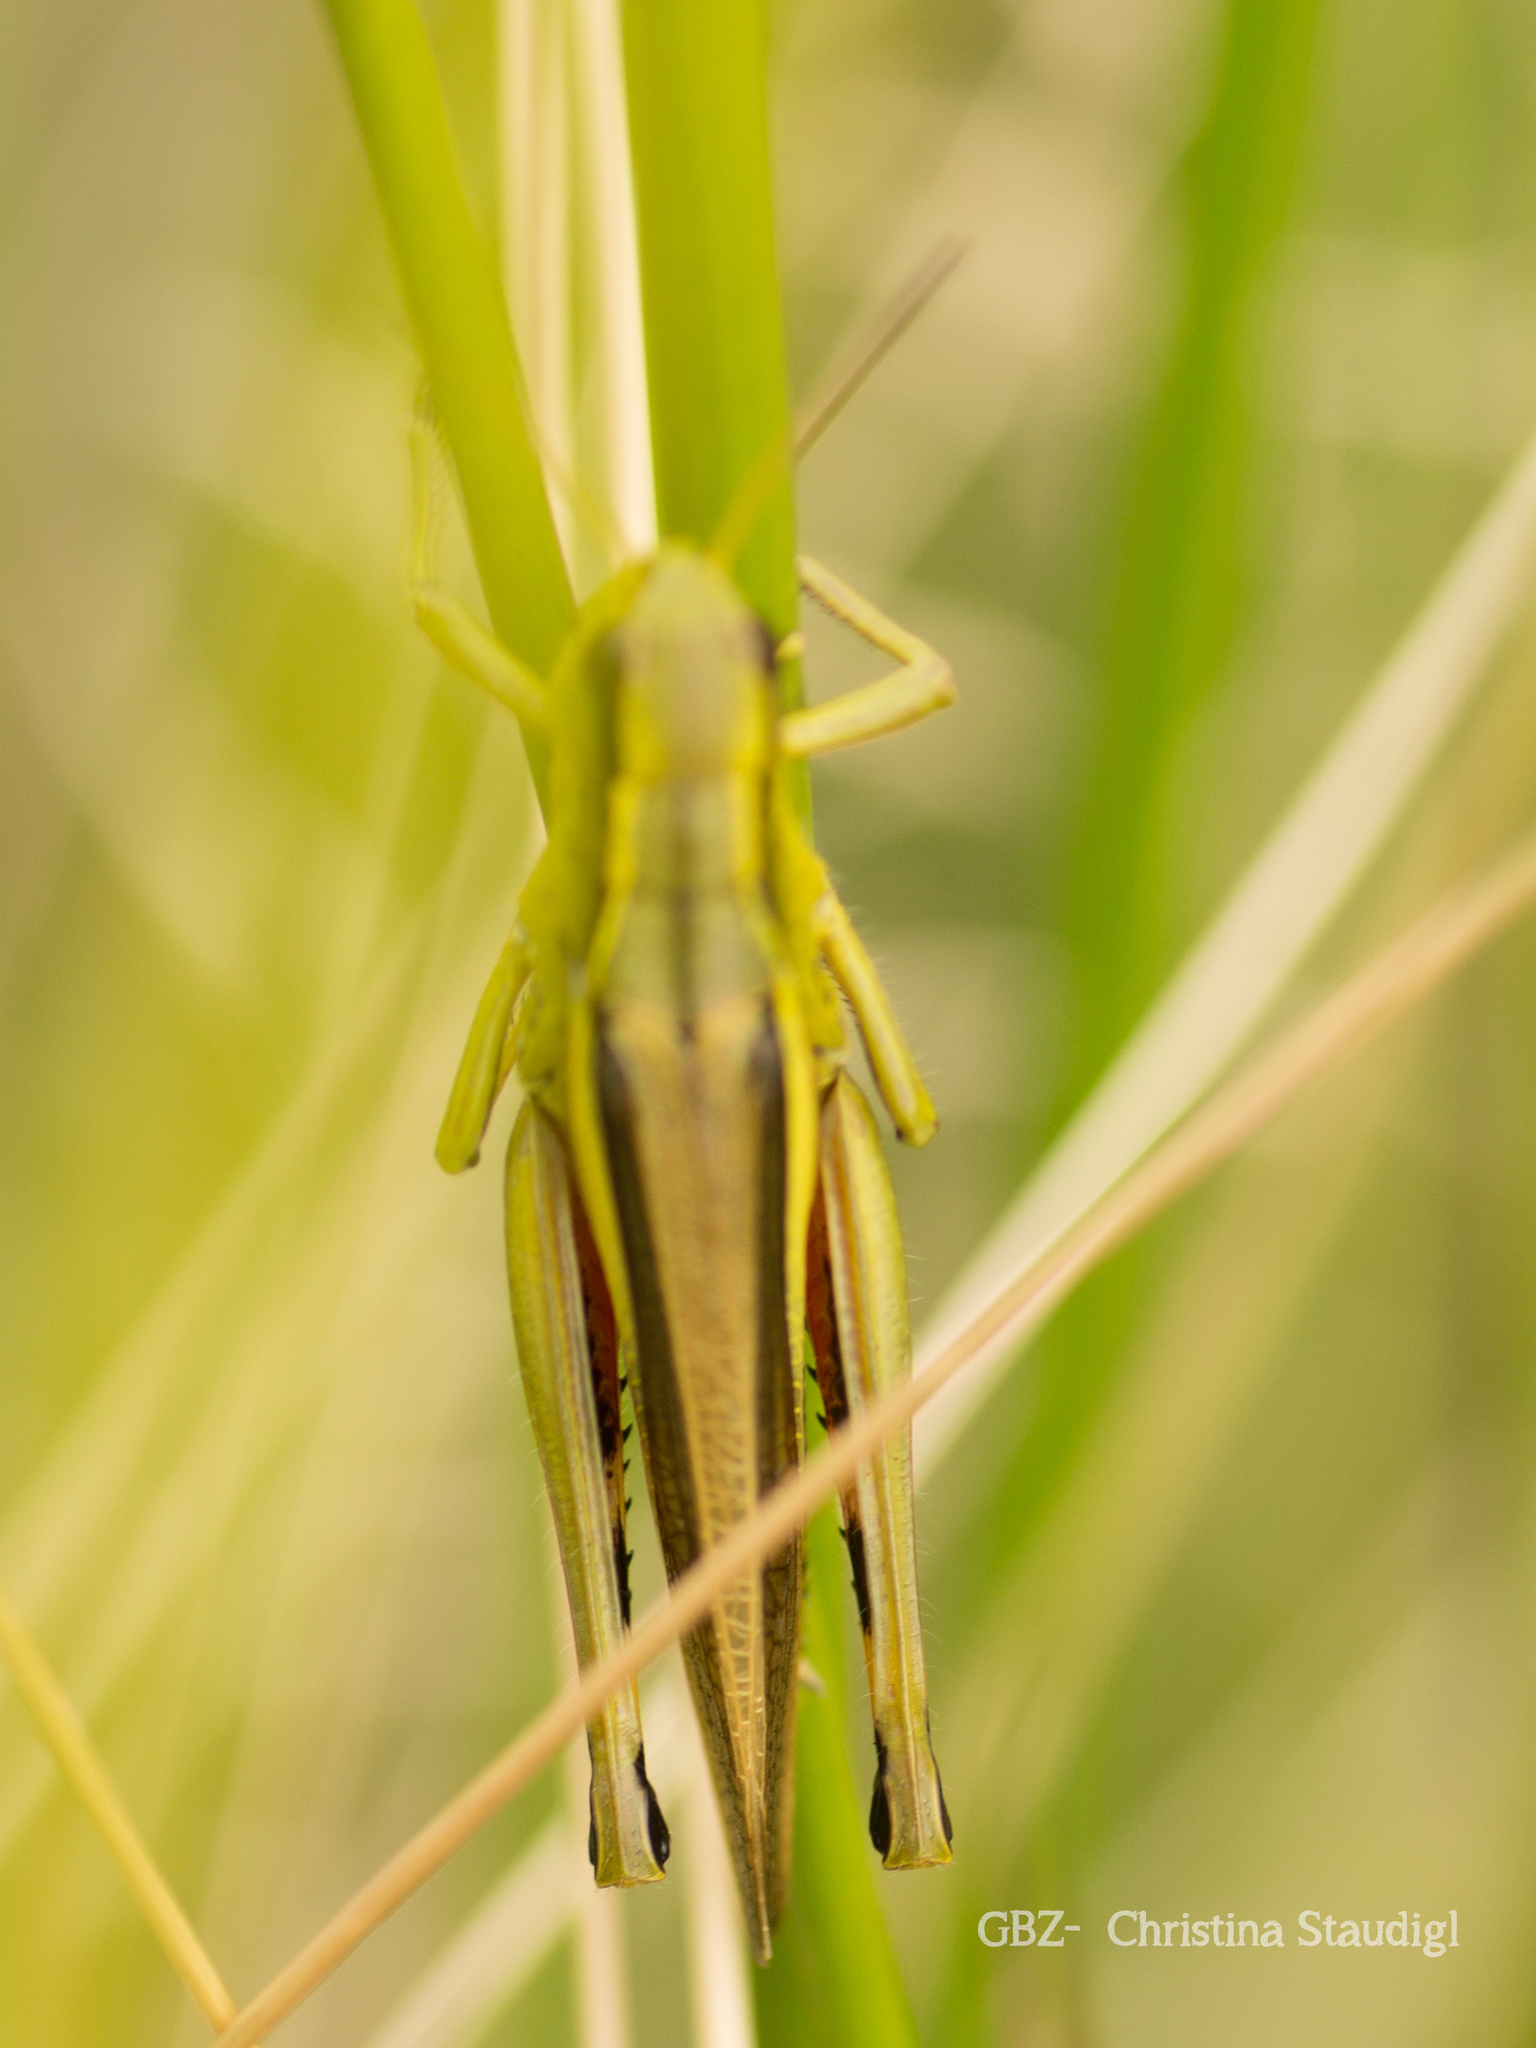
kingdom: Animalia
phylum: Arthropoda
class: Insecta
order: Orthoptera
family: Acrididae
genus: Stethophyma
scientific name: Stethophyma grossum
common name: Large marsh grasshopper
